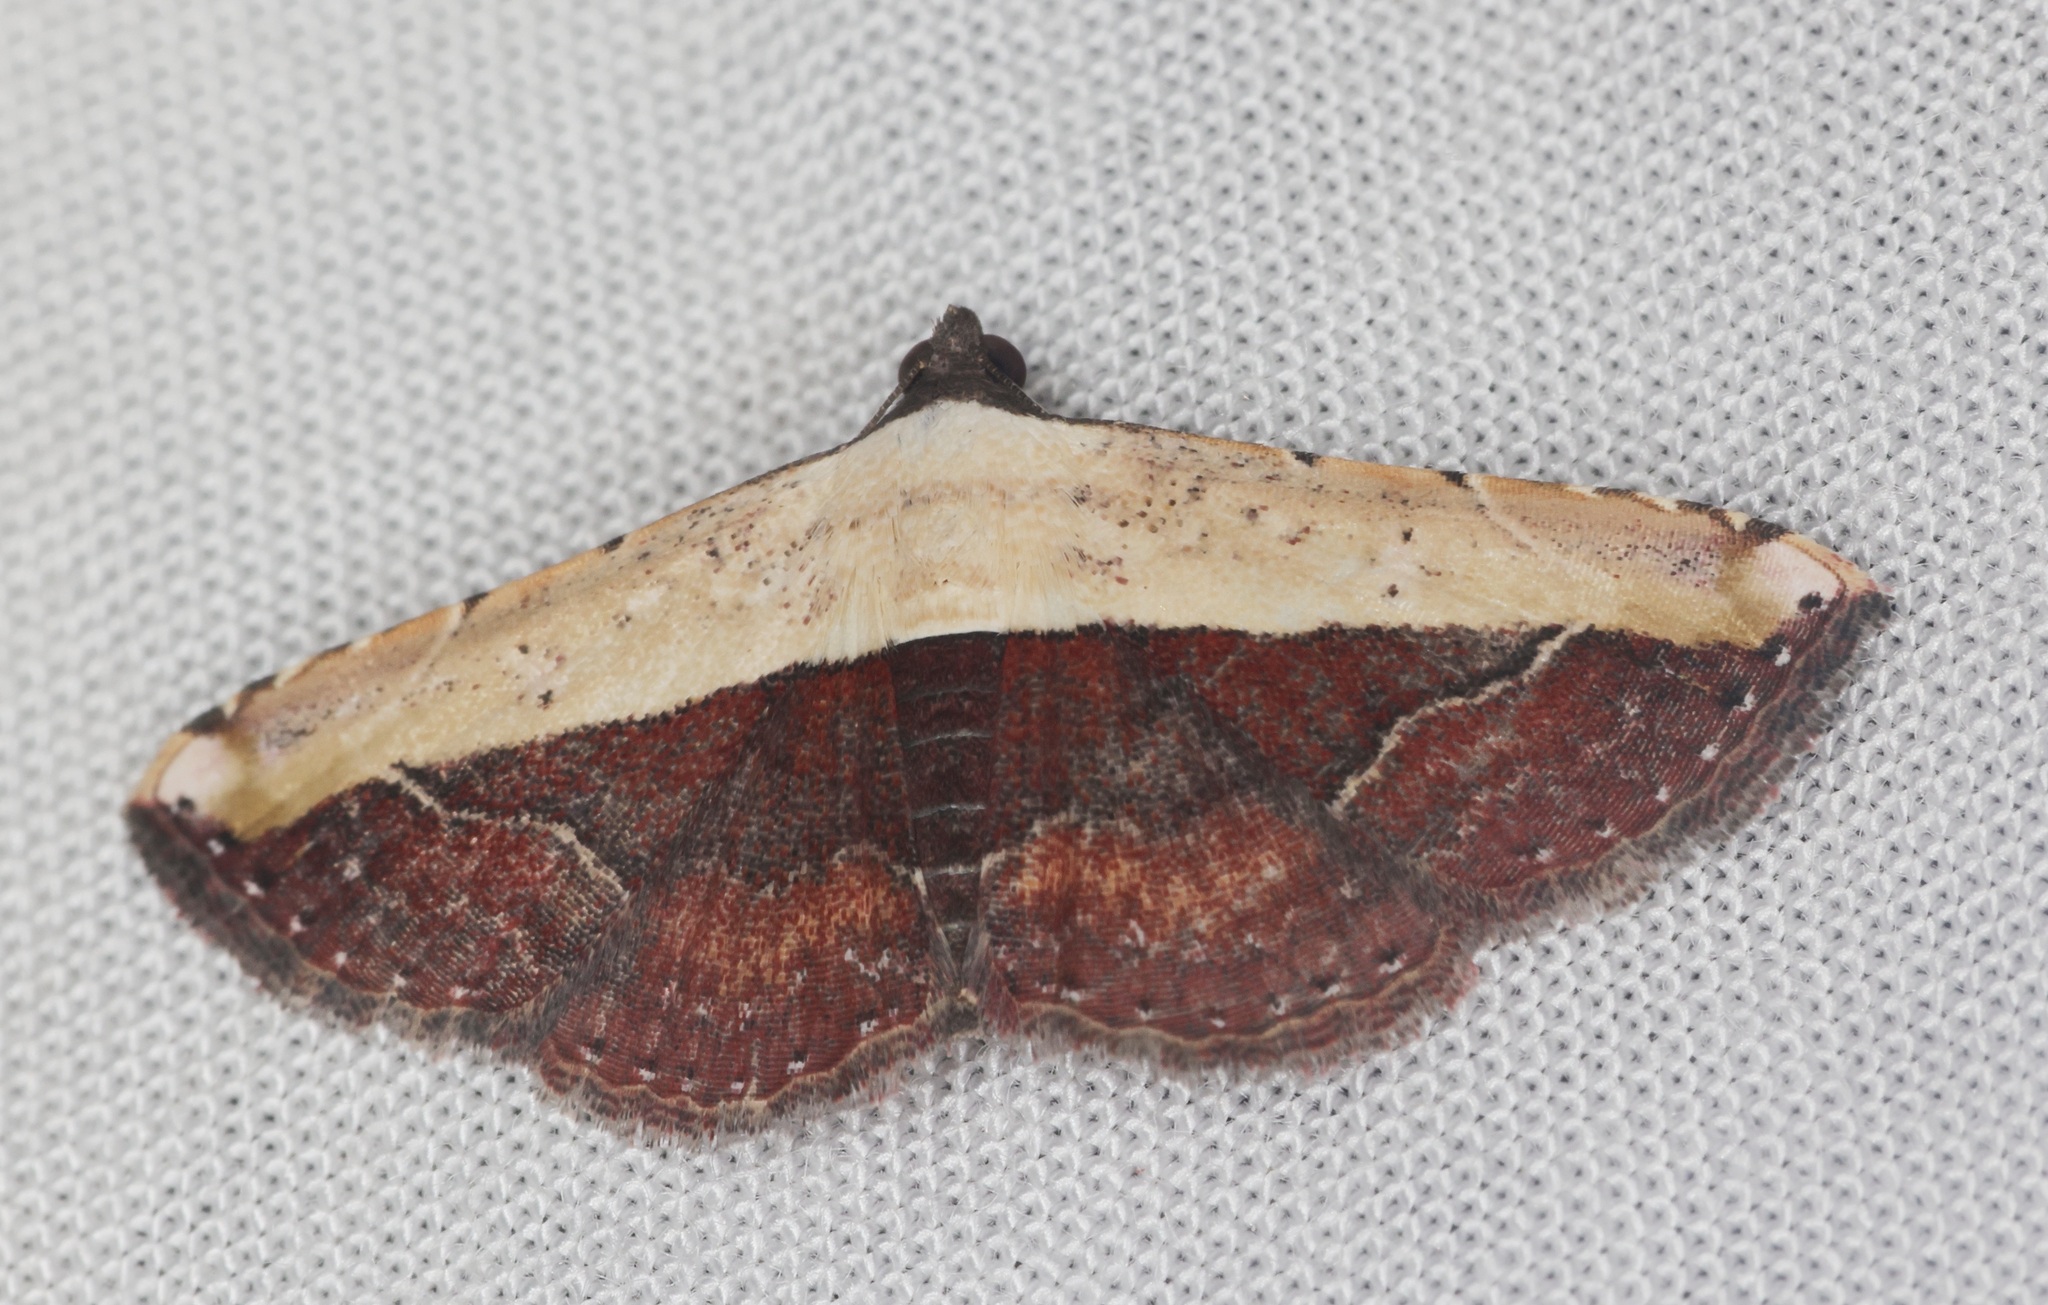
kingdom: Animalia
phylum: Arthropoda
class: Insecta
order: Lepidoptera
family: Noctuidae
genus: Ataboruza
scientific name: Ataboruza lauta
